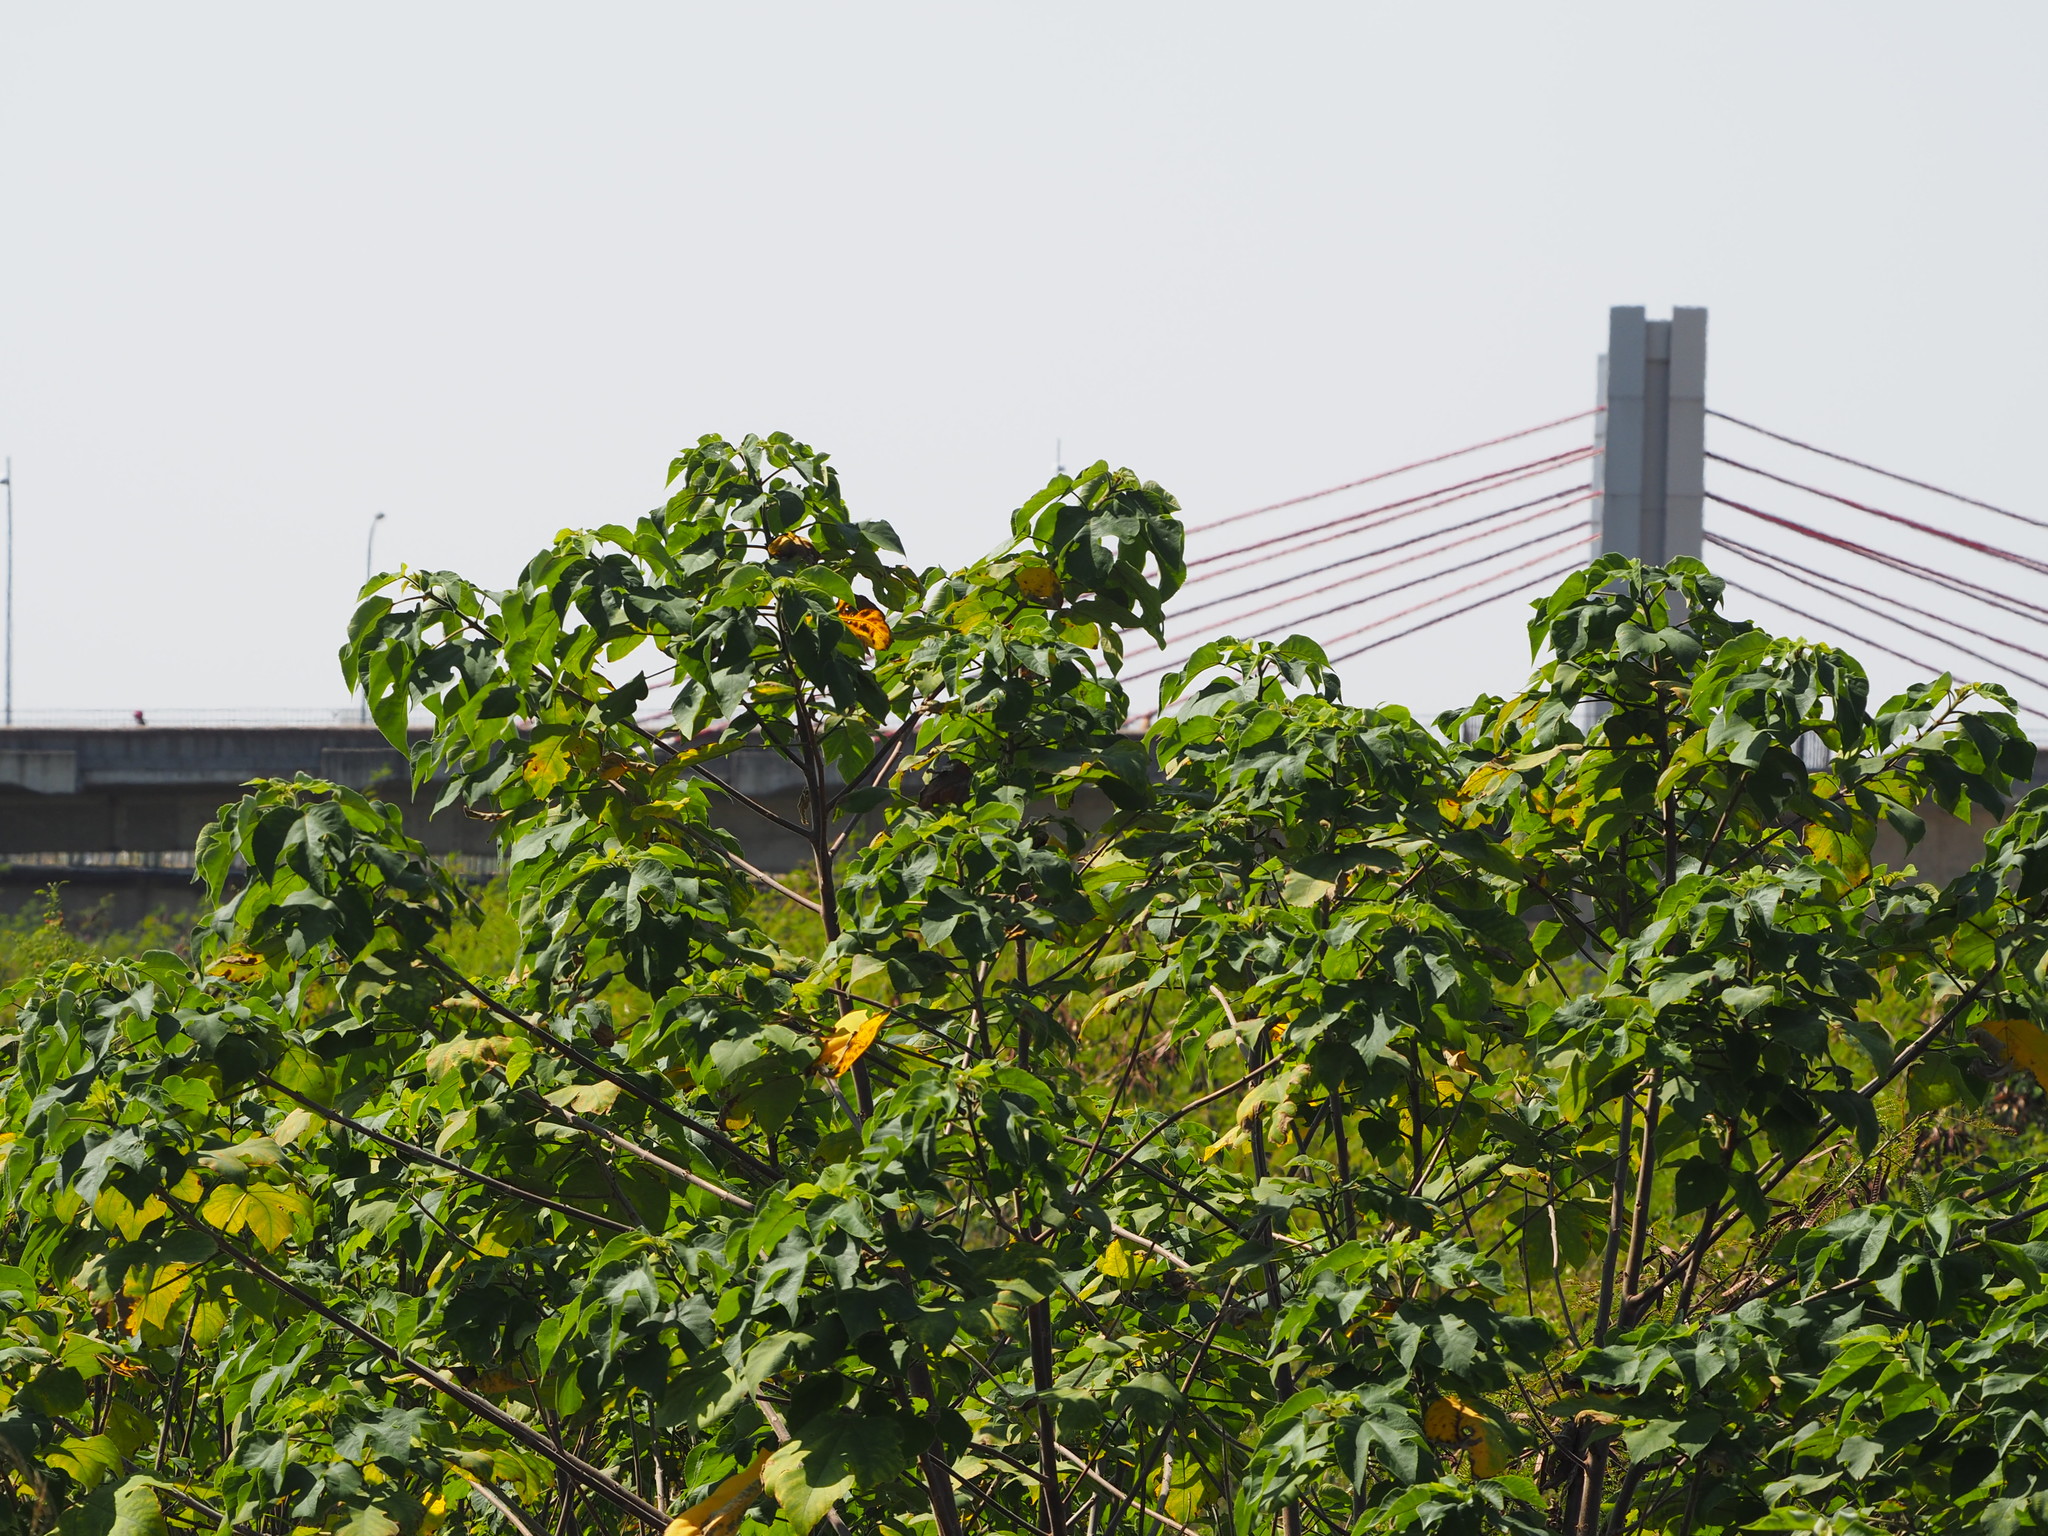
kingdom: Plantae
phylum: Tracheophyta
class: Magnoliopsida
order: Rosales
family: Moraceae
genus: Broussonetia
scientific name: Broussonetia papyrifera
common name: Paper mulberry
